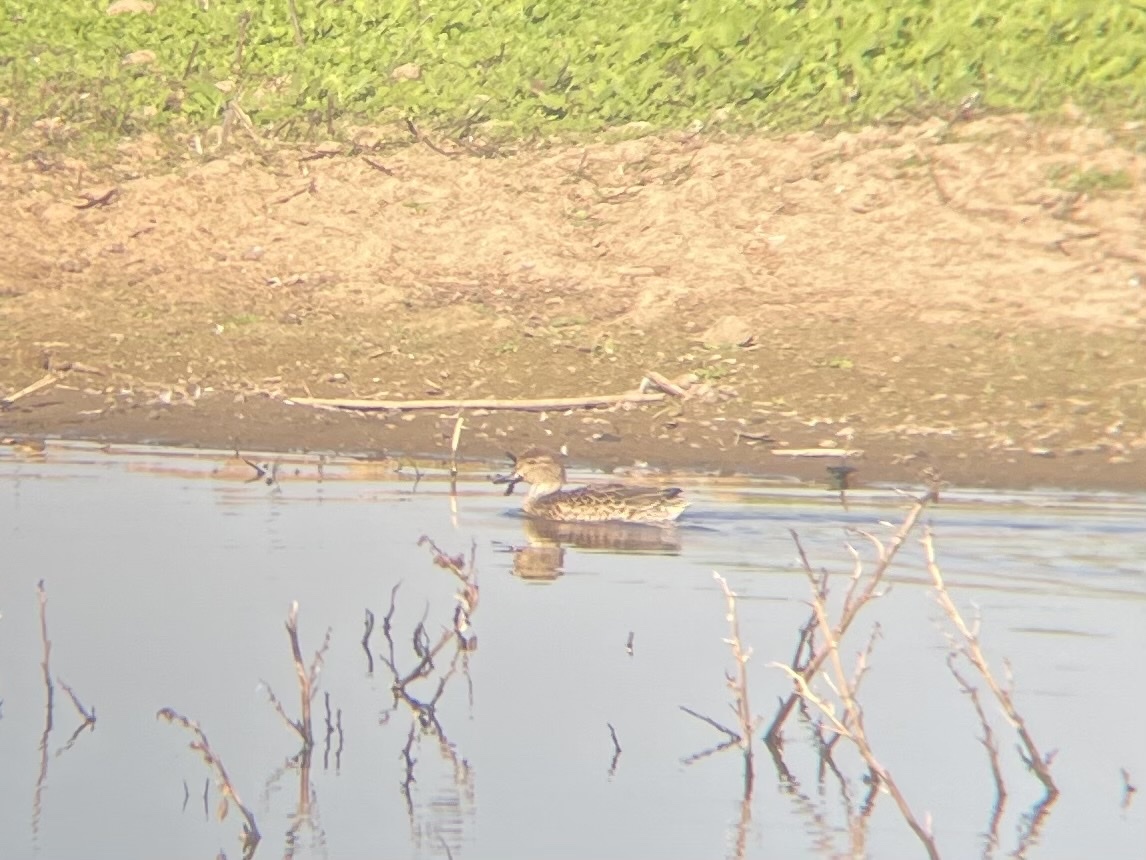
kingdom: Animalia
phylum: Chordata
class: Aves
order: Anseriformes
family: Anatidae
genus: Anas
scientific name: Anas crecca
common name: Eurasian teal
